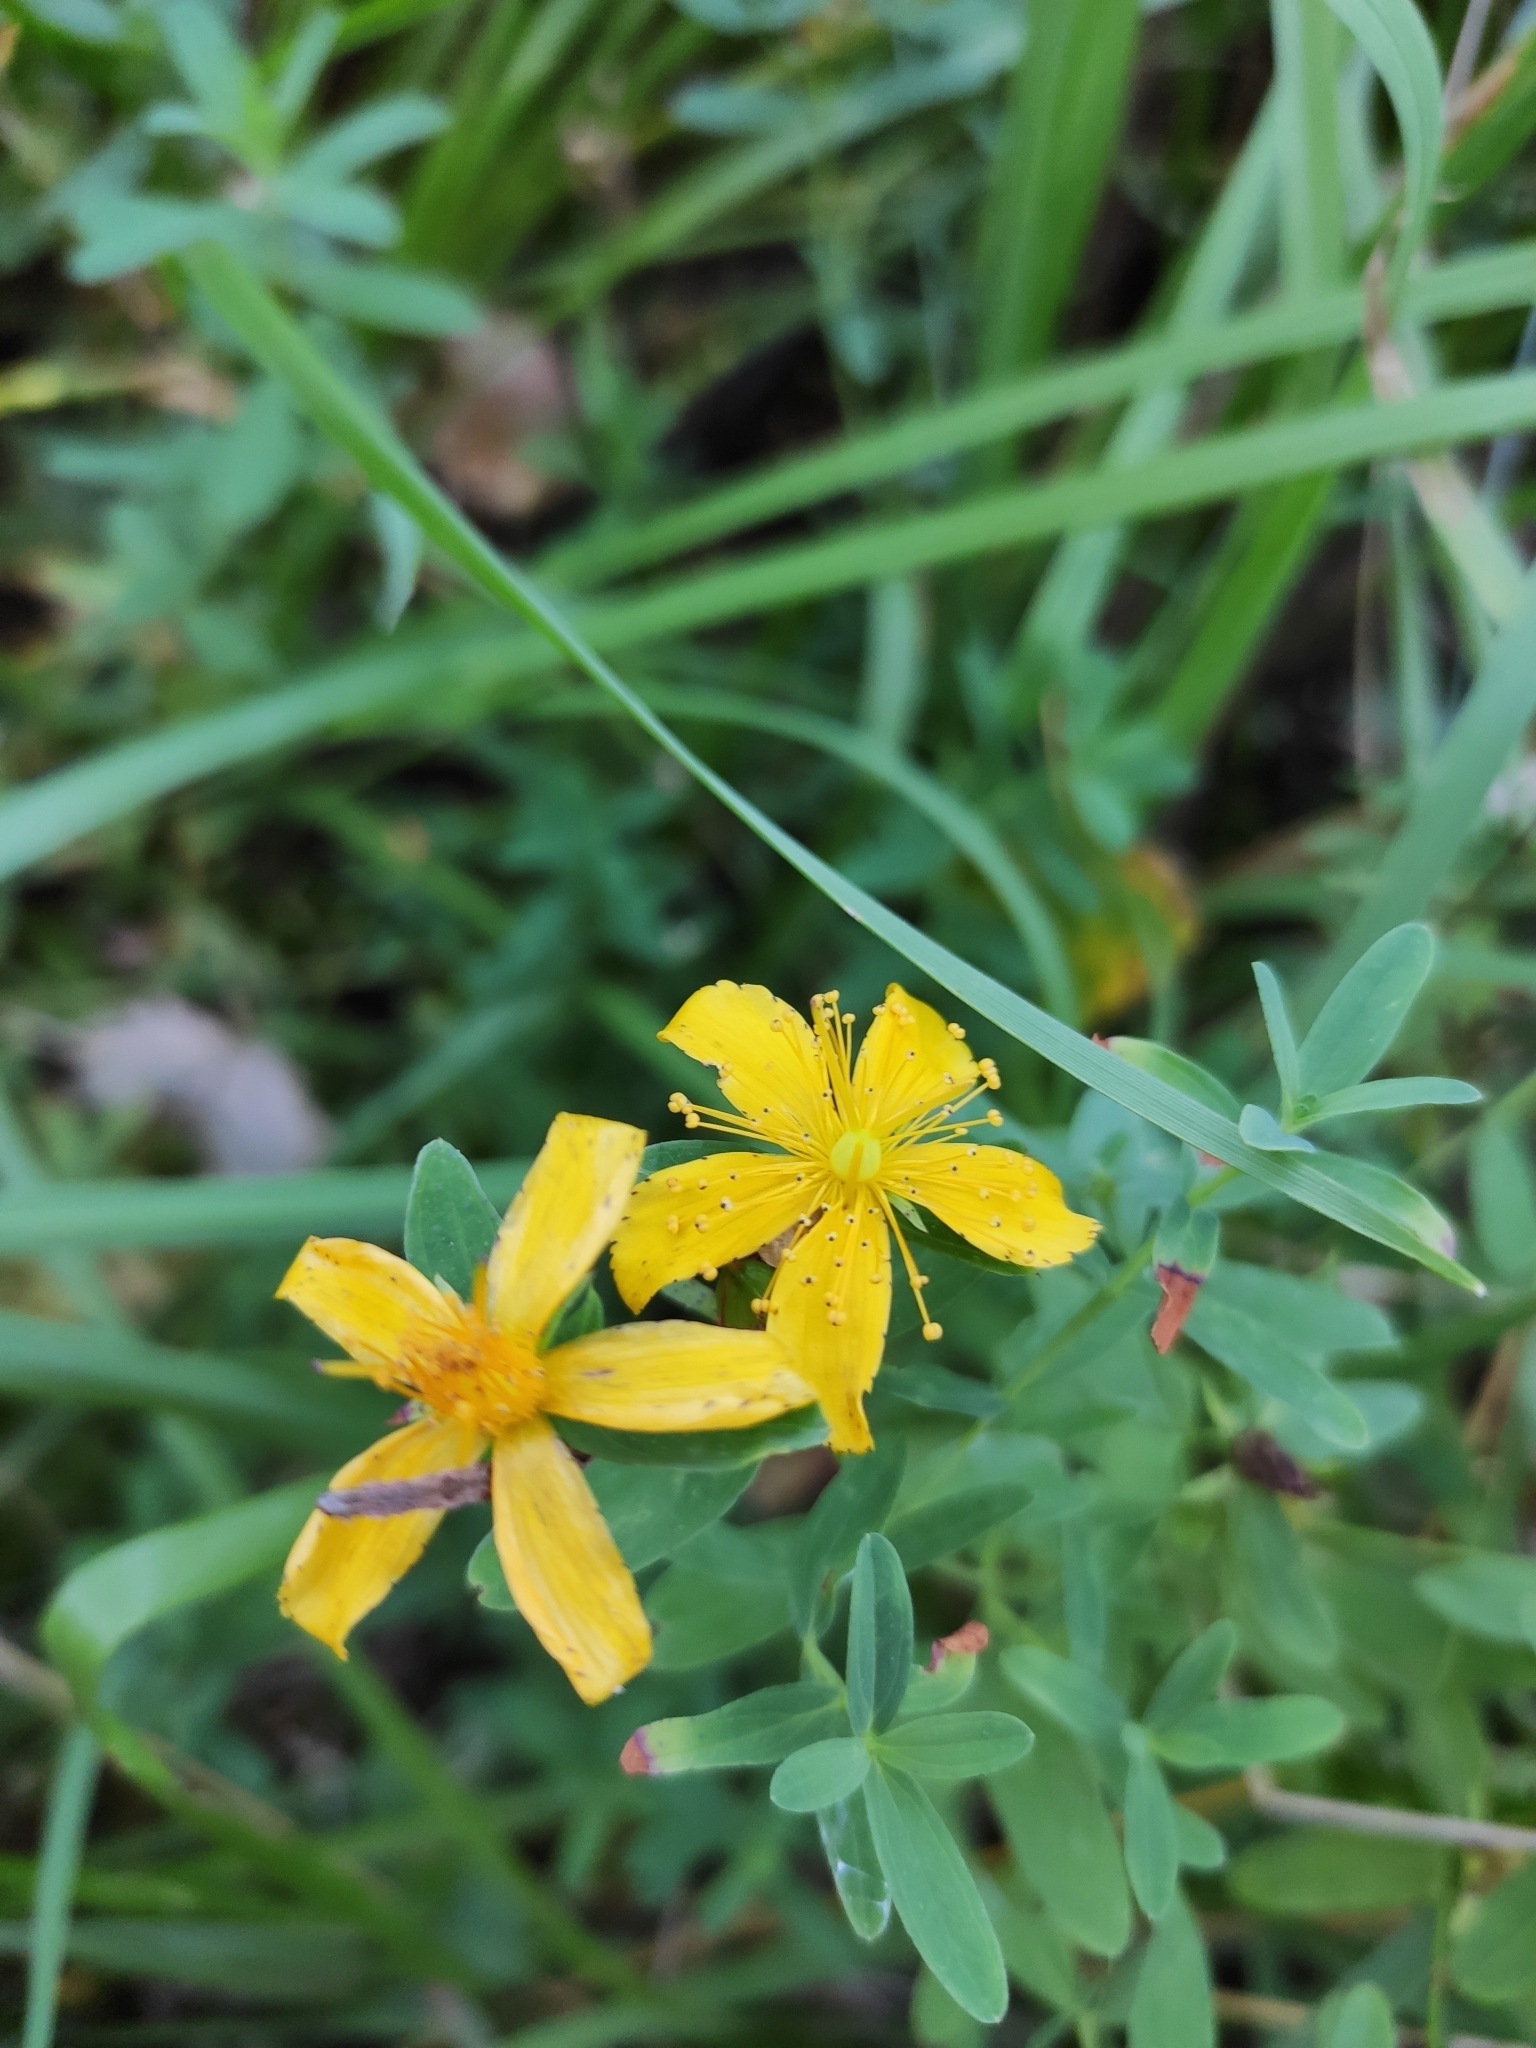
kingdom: Plantae
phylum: Tracheophyta
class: Magnoliopsida
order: Malpighiales
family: Hypericaceae
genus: Hypericum
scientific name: Hypericum perforatum
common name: Common st. johnswort
